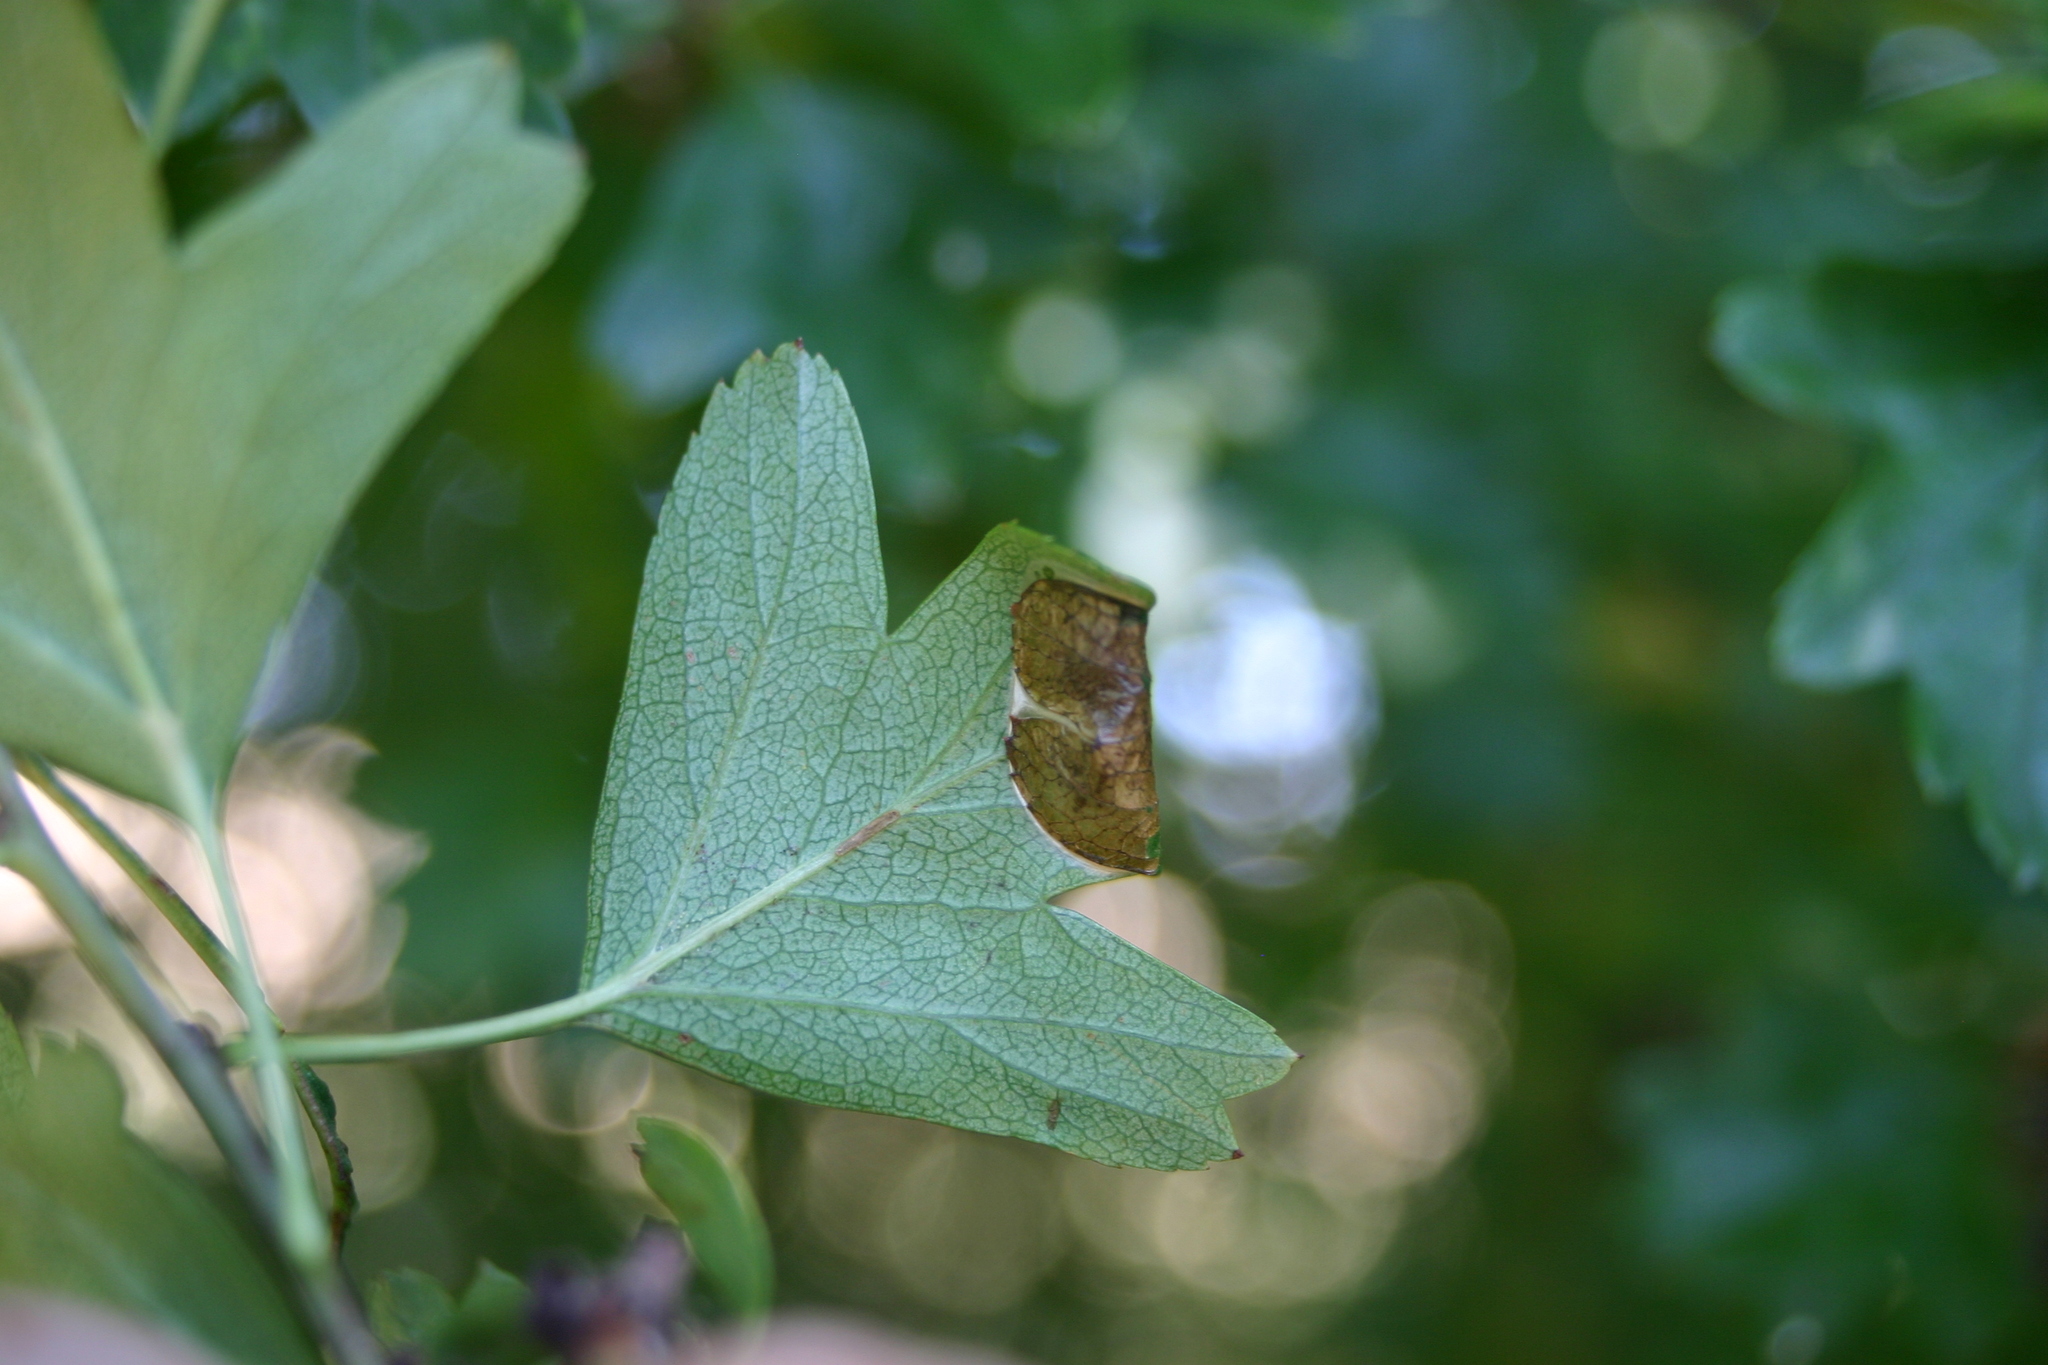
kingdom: Animalia
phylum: Arthropoda
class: Insecta
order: Lepidoptera
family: Gracillariidae
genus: Phyllonorycter
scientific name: Phyllonorycter oxyacanthae
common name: Common thorn midget
